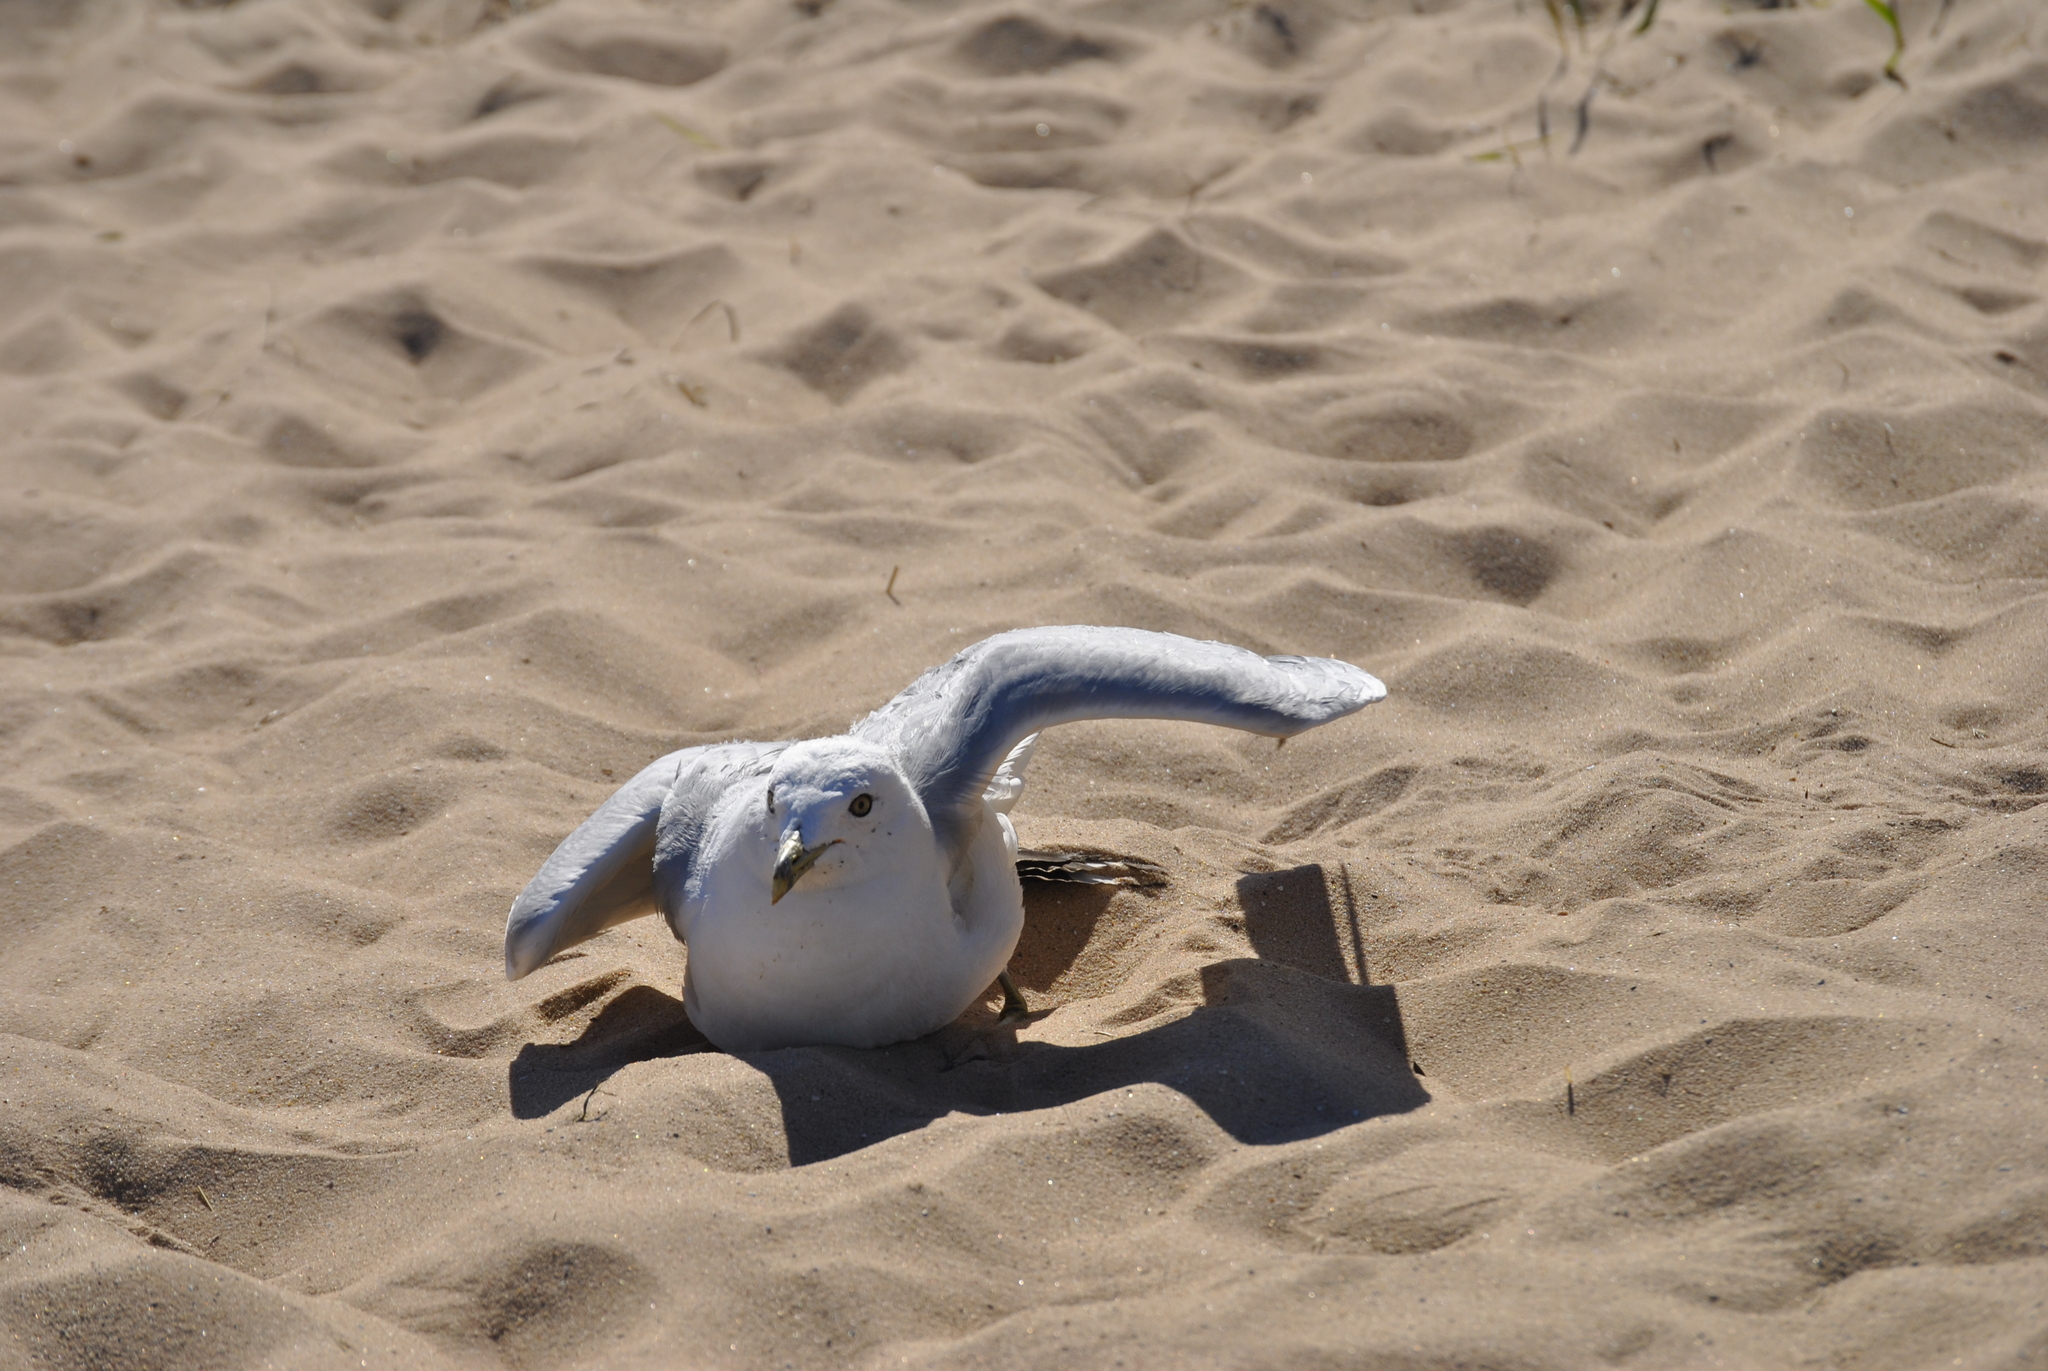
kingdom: Animalia
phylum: Chordata
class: Aves
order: Charadriiformes
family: Laridae
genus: Larus
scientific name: Larus delawarensis
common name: Ring-billed gull
